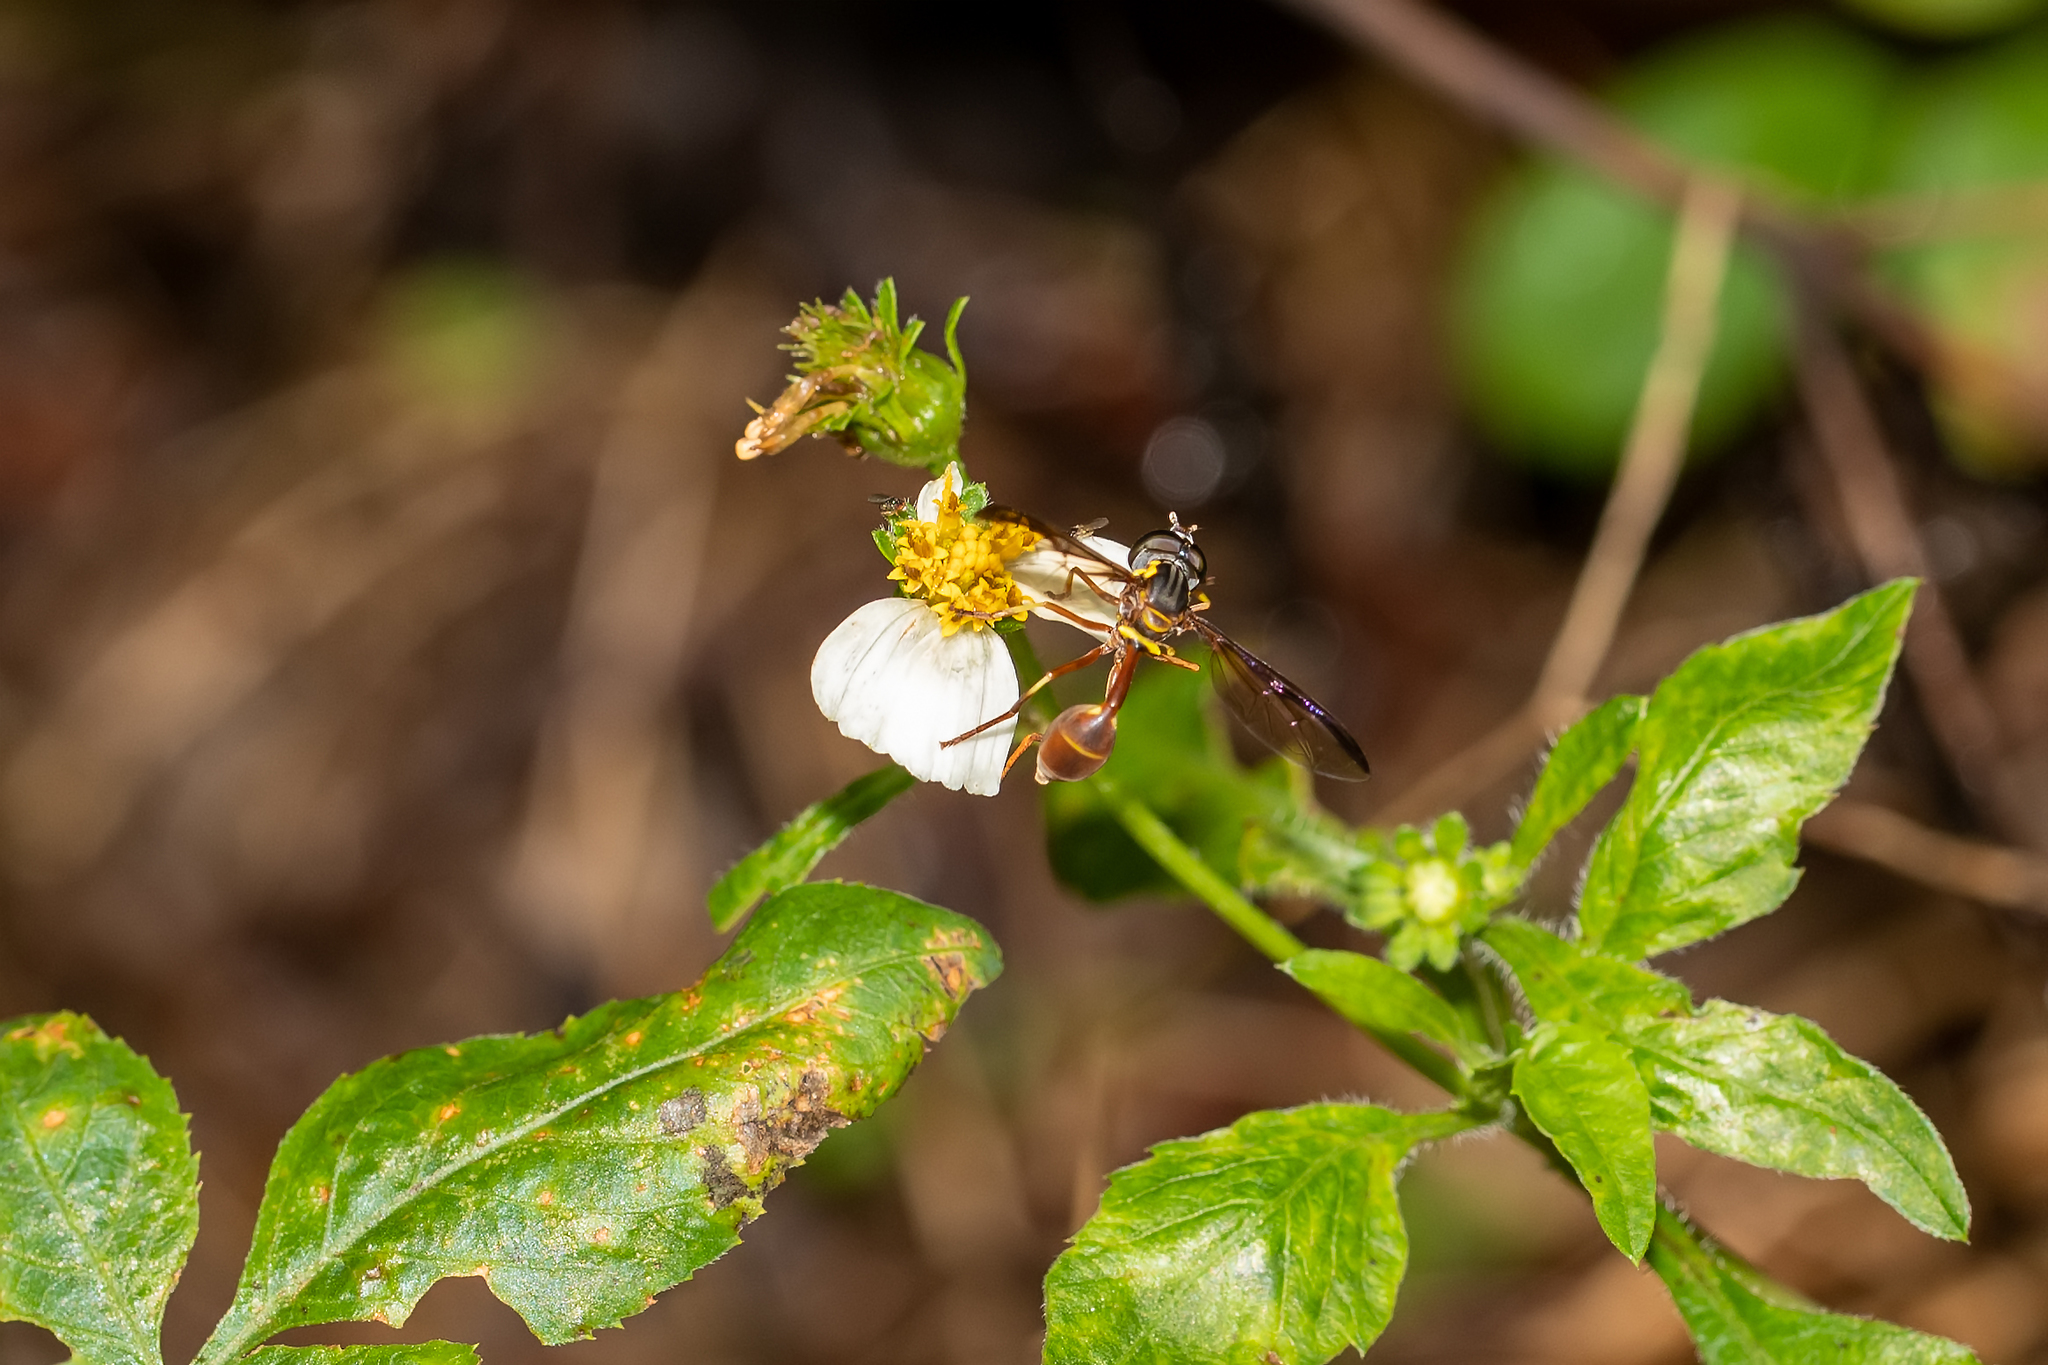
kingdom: Animalia
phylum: Arthropoda
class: Insecta
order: Diptera
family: Syrphidae
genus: Salpingogaster
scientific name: Salpingogaster punctifrons
